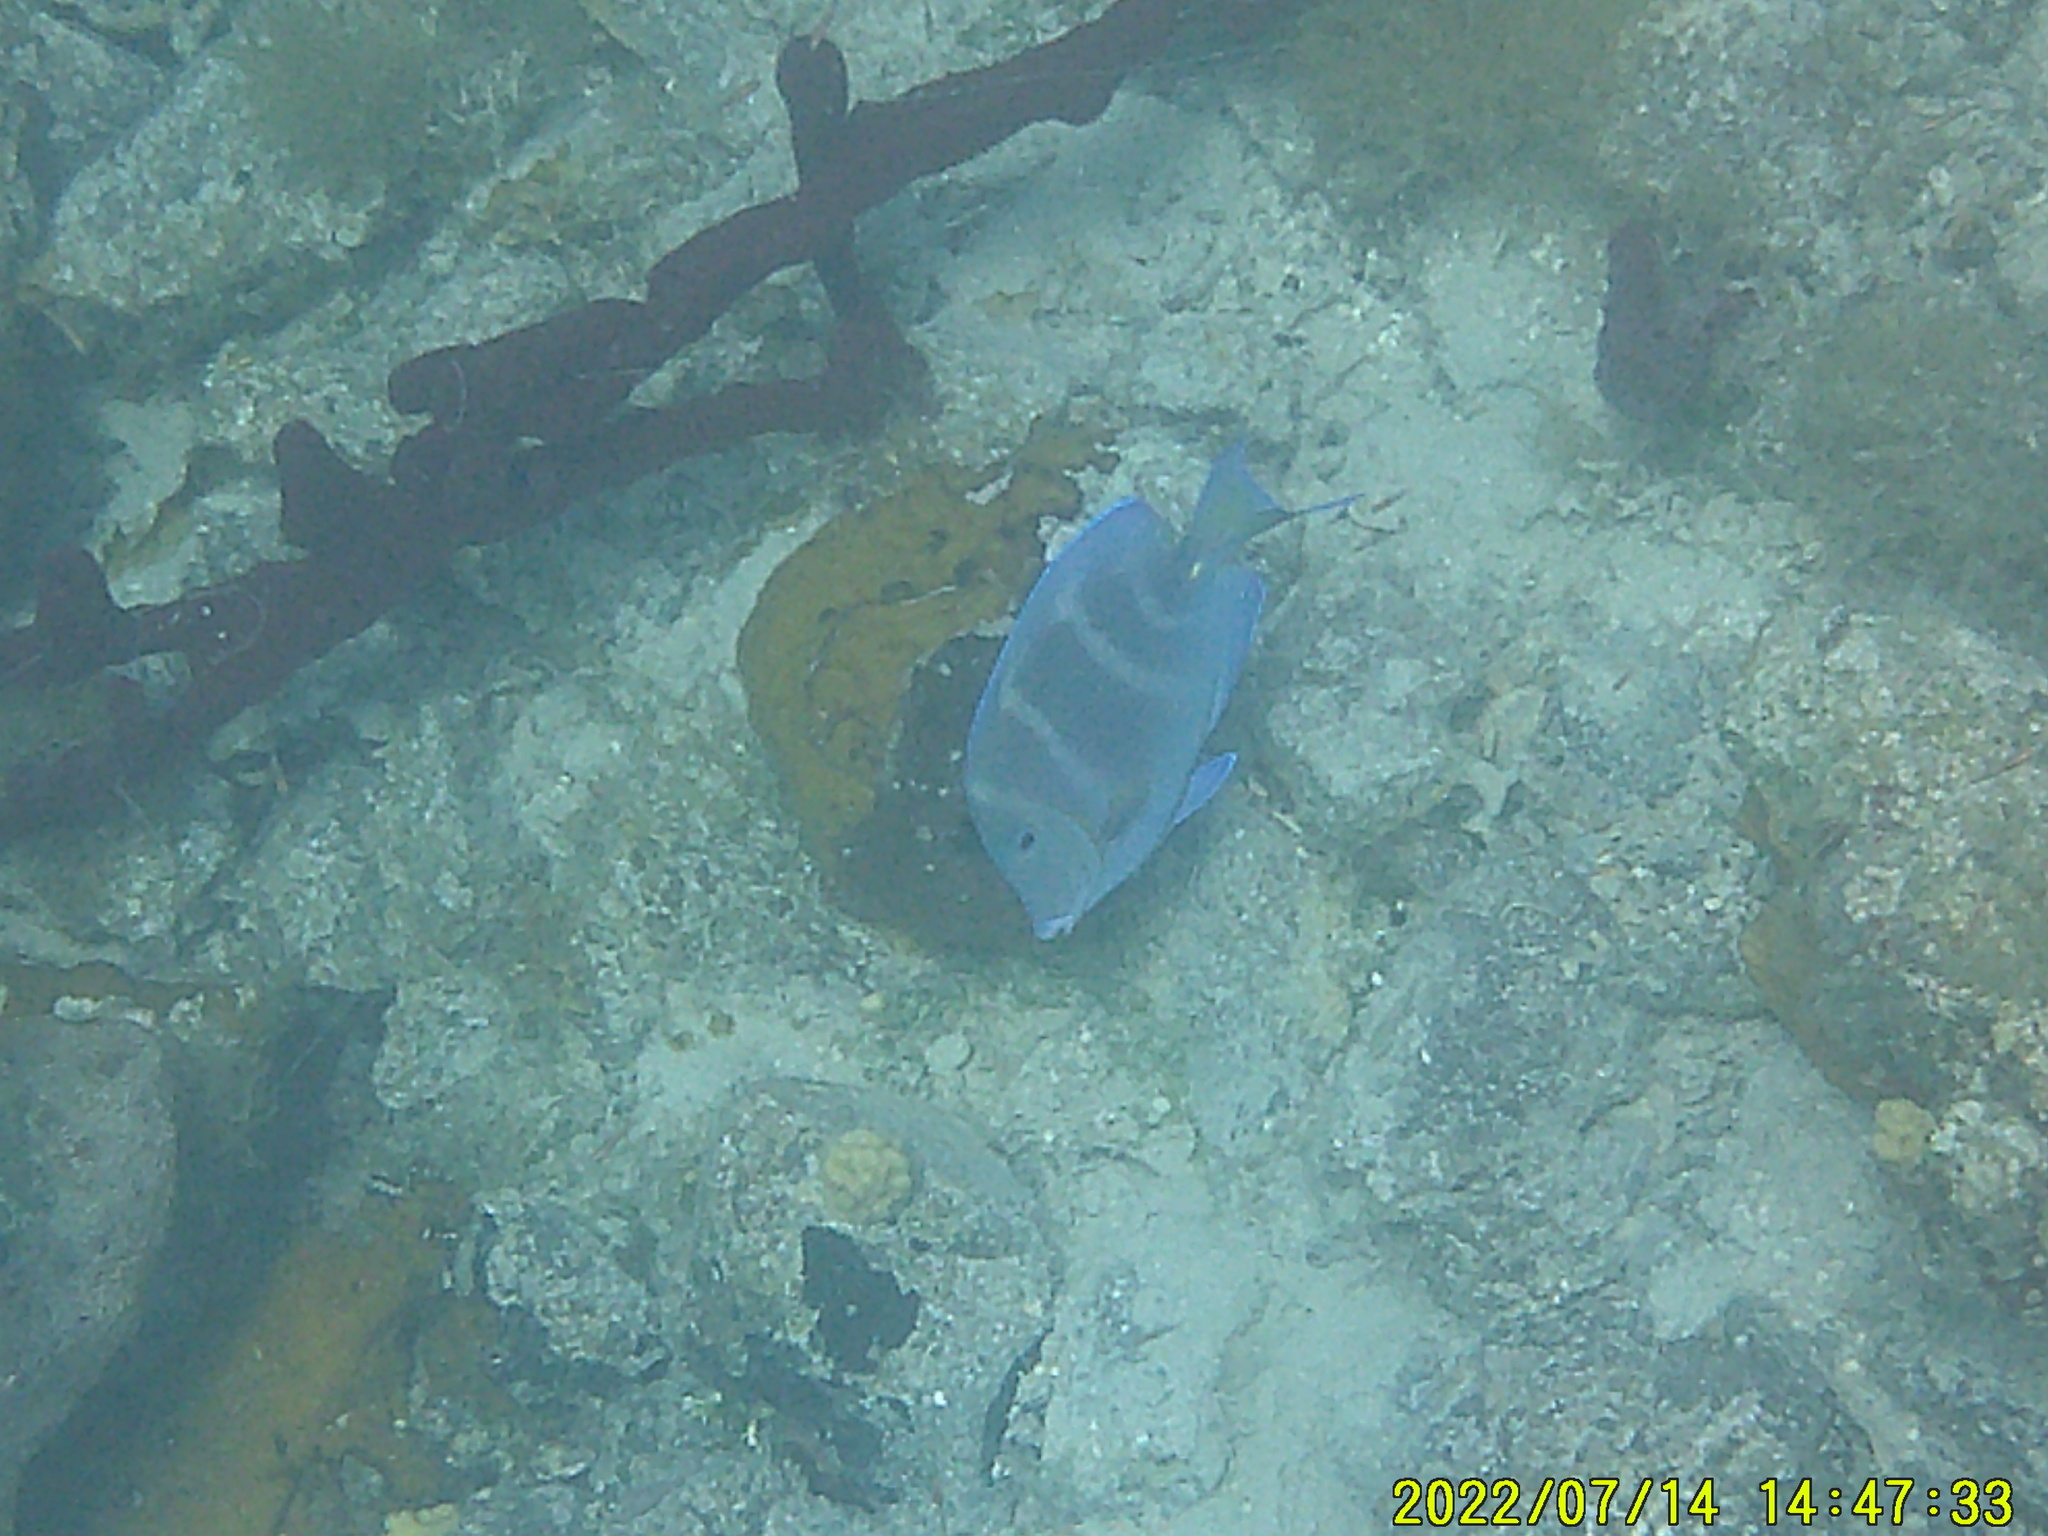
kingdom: Animalia
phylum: Chordata
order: Perciformes
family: Acanthuridae
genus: Acanthurus
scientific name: Acanthurus coeruleus
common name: Blue tang
